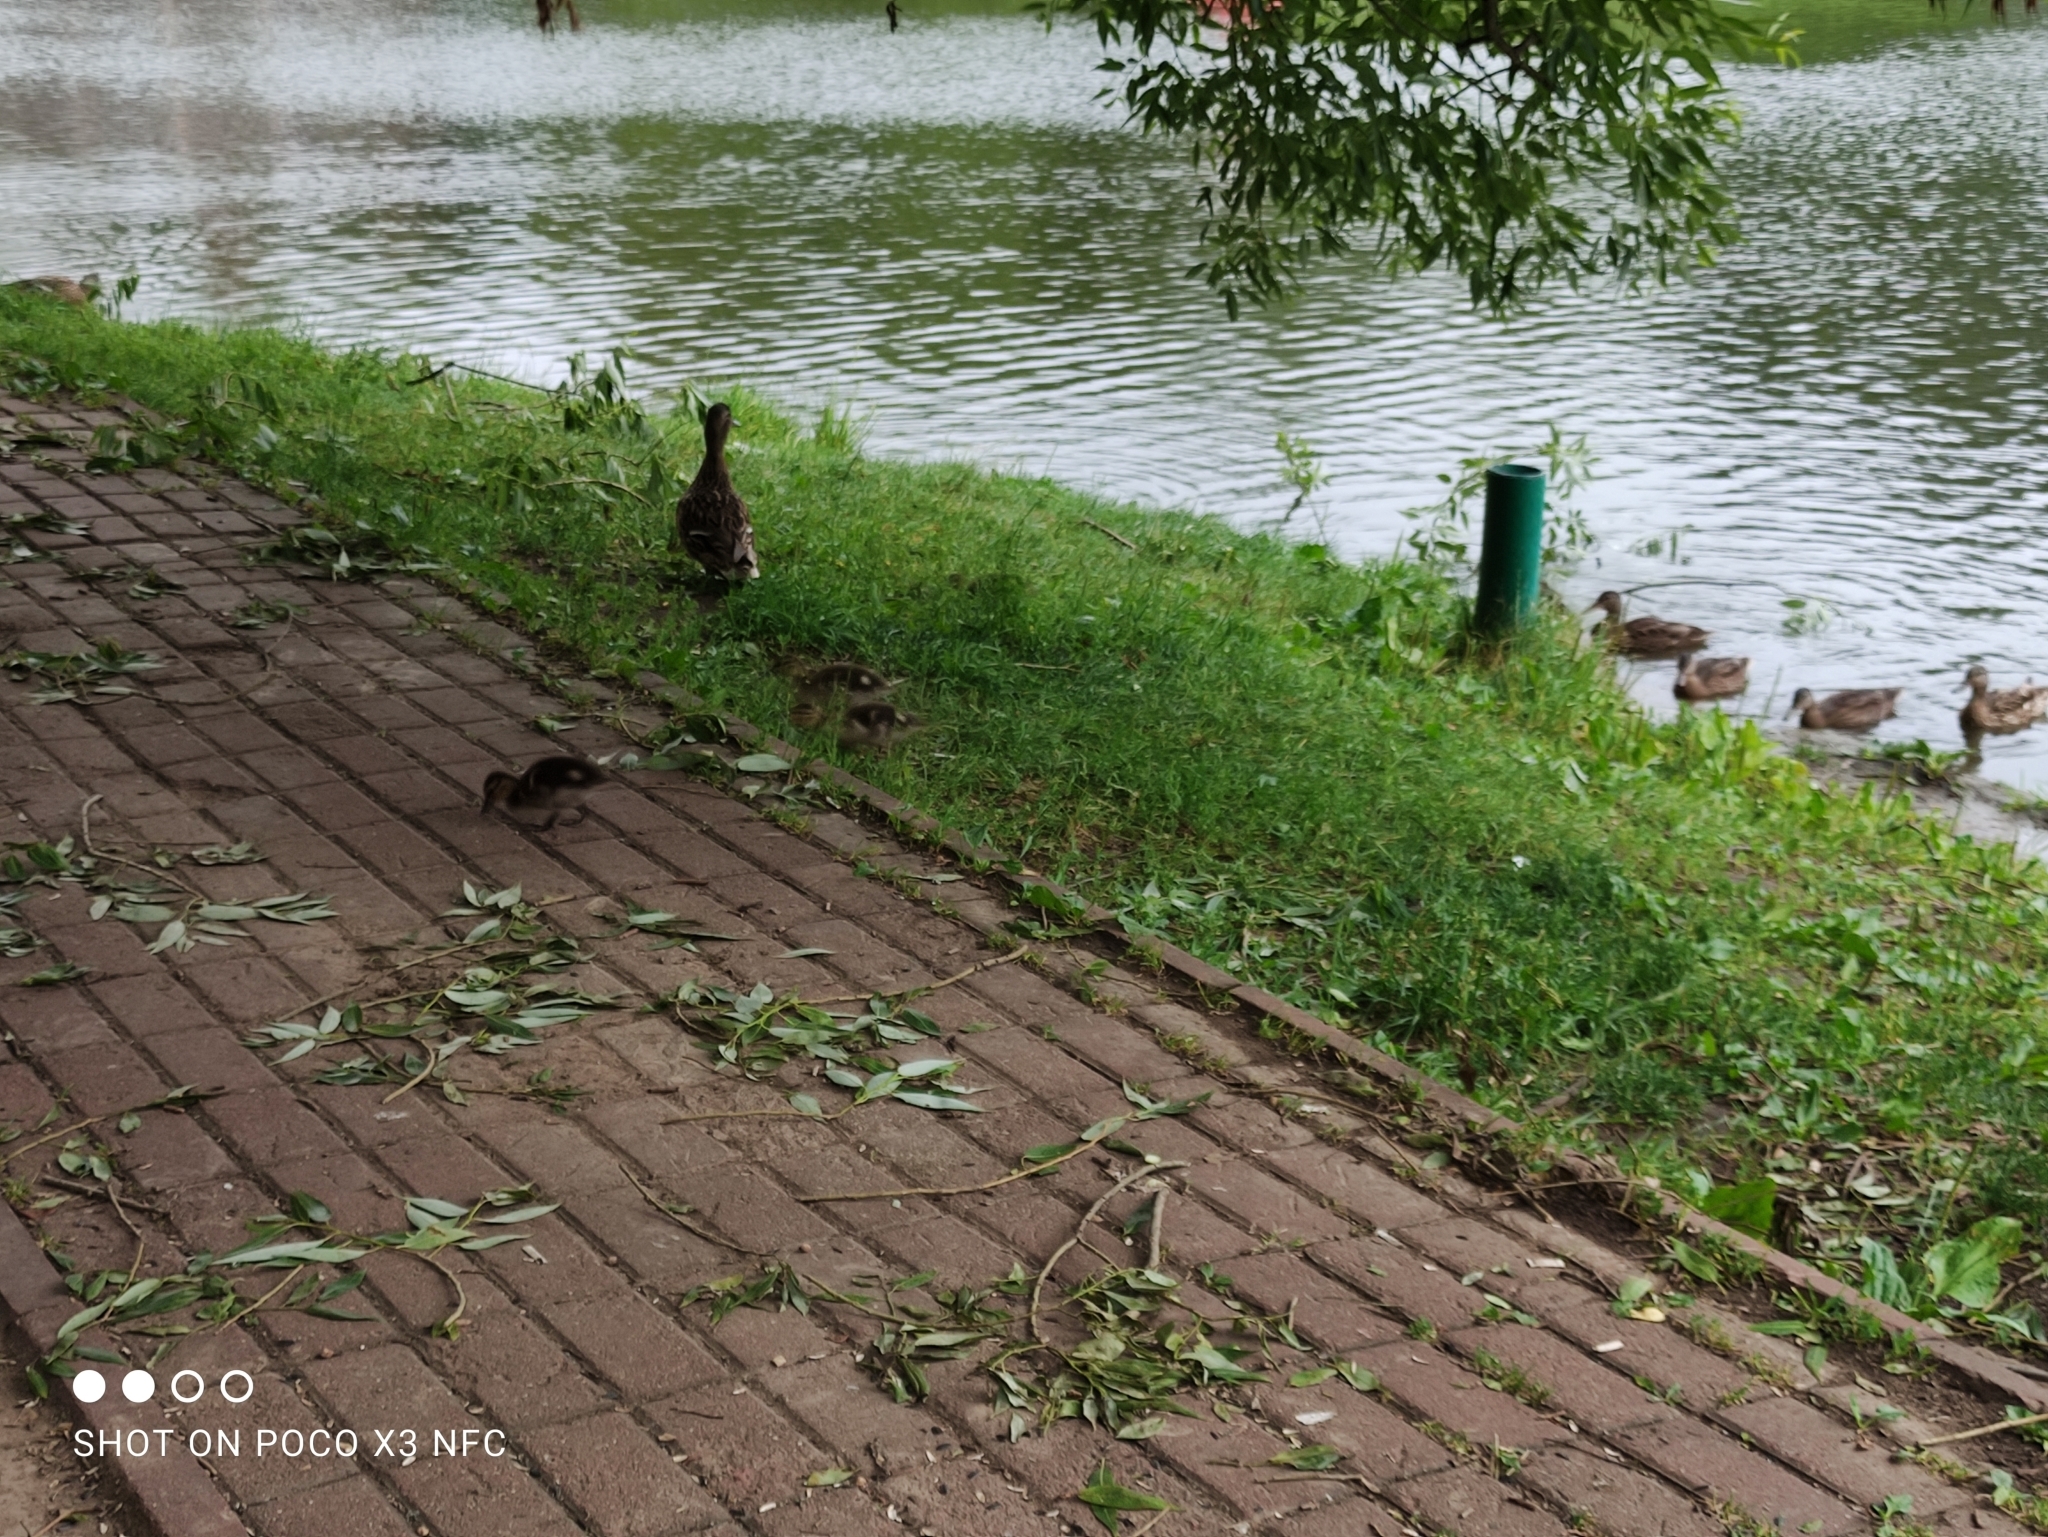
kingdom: Animalia
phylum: Chordata
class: Aves
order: Anseriformes
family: Anatidae
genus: Anas
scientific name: Anas platyrhynchos
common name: Mallard
